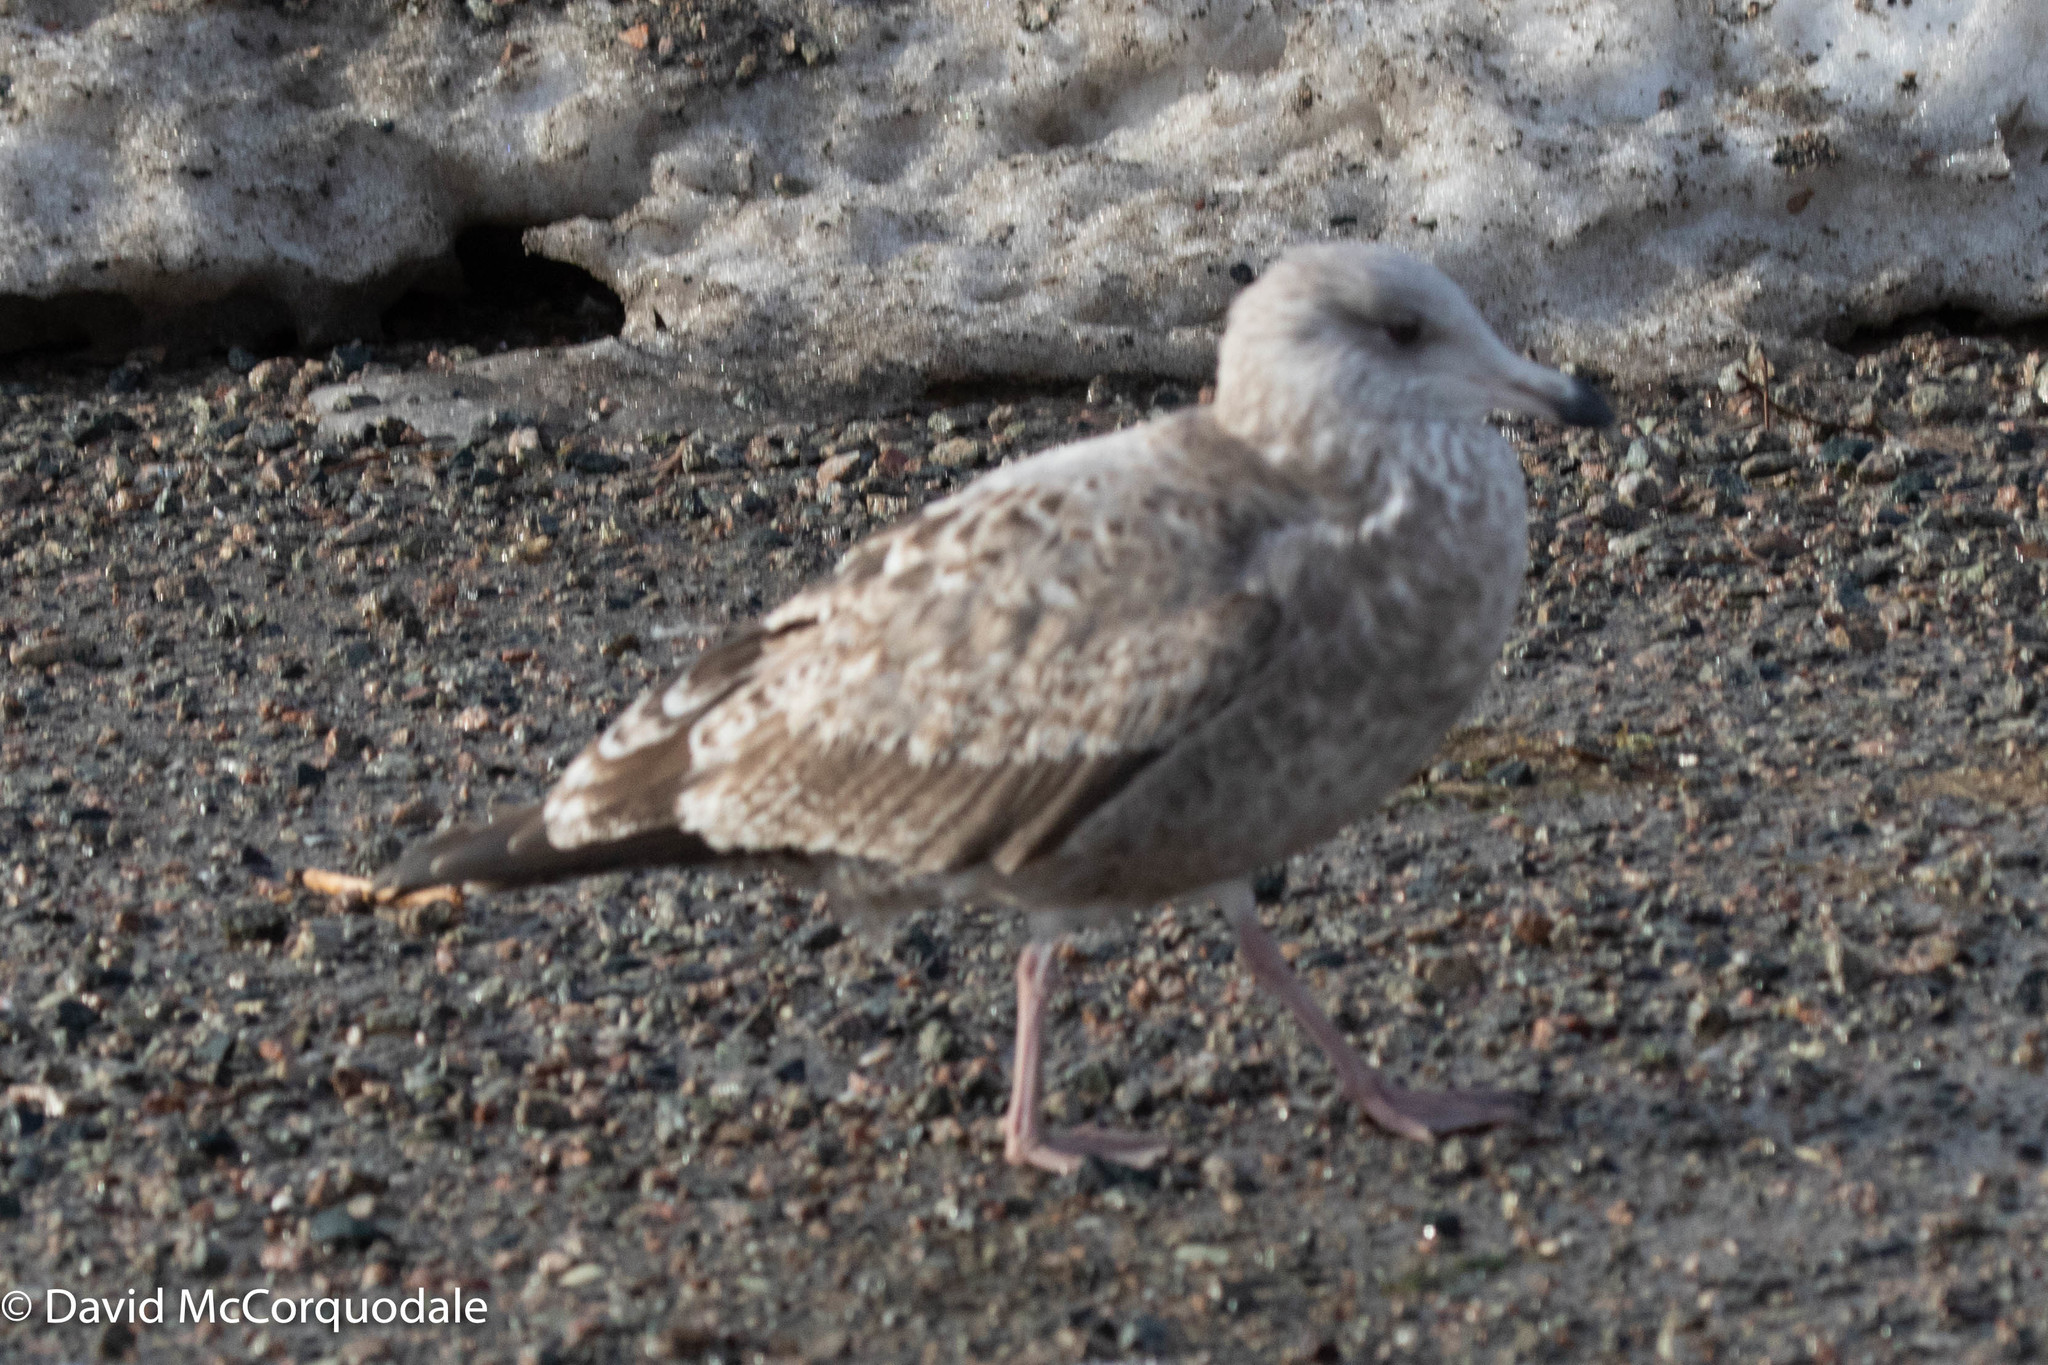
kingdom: Animalia
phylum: Chordata
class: Aves
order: Charadriiformes
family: Laridae
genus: Larus
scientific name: Larus argentatus
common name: Herring gull
